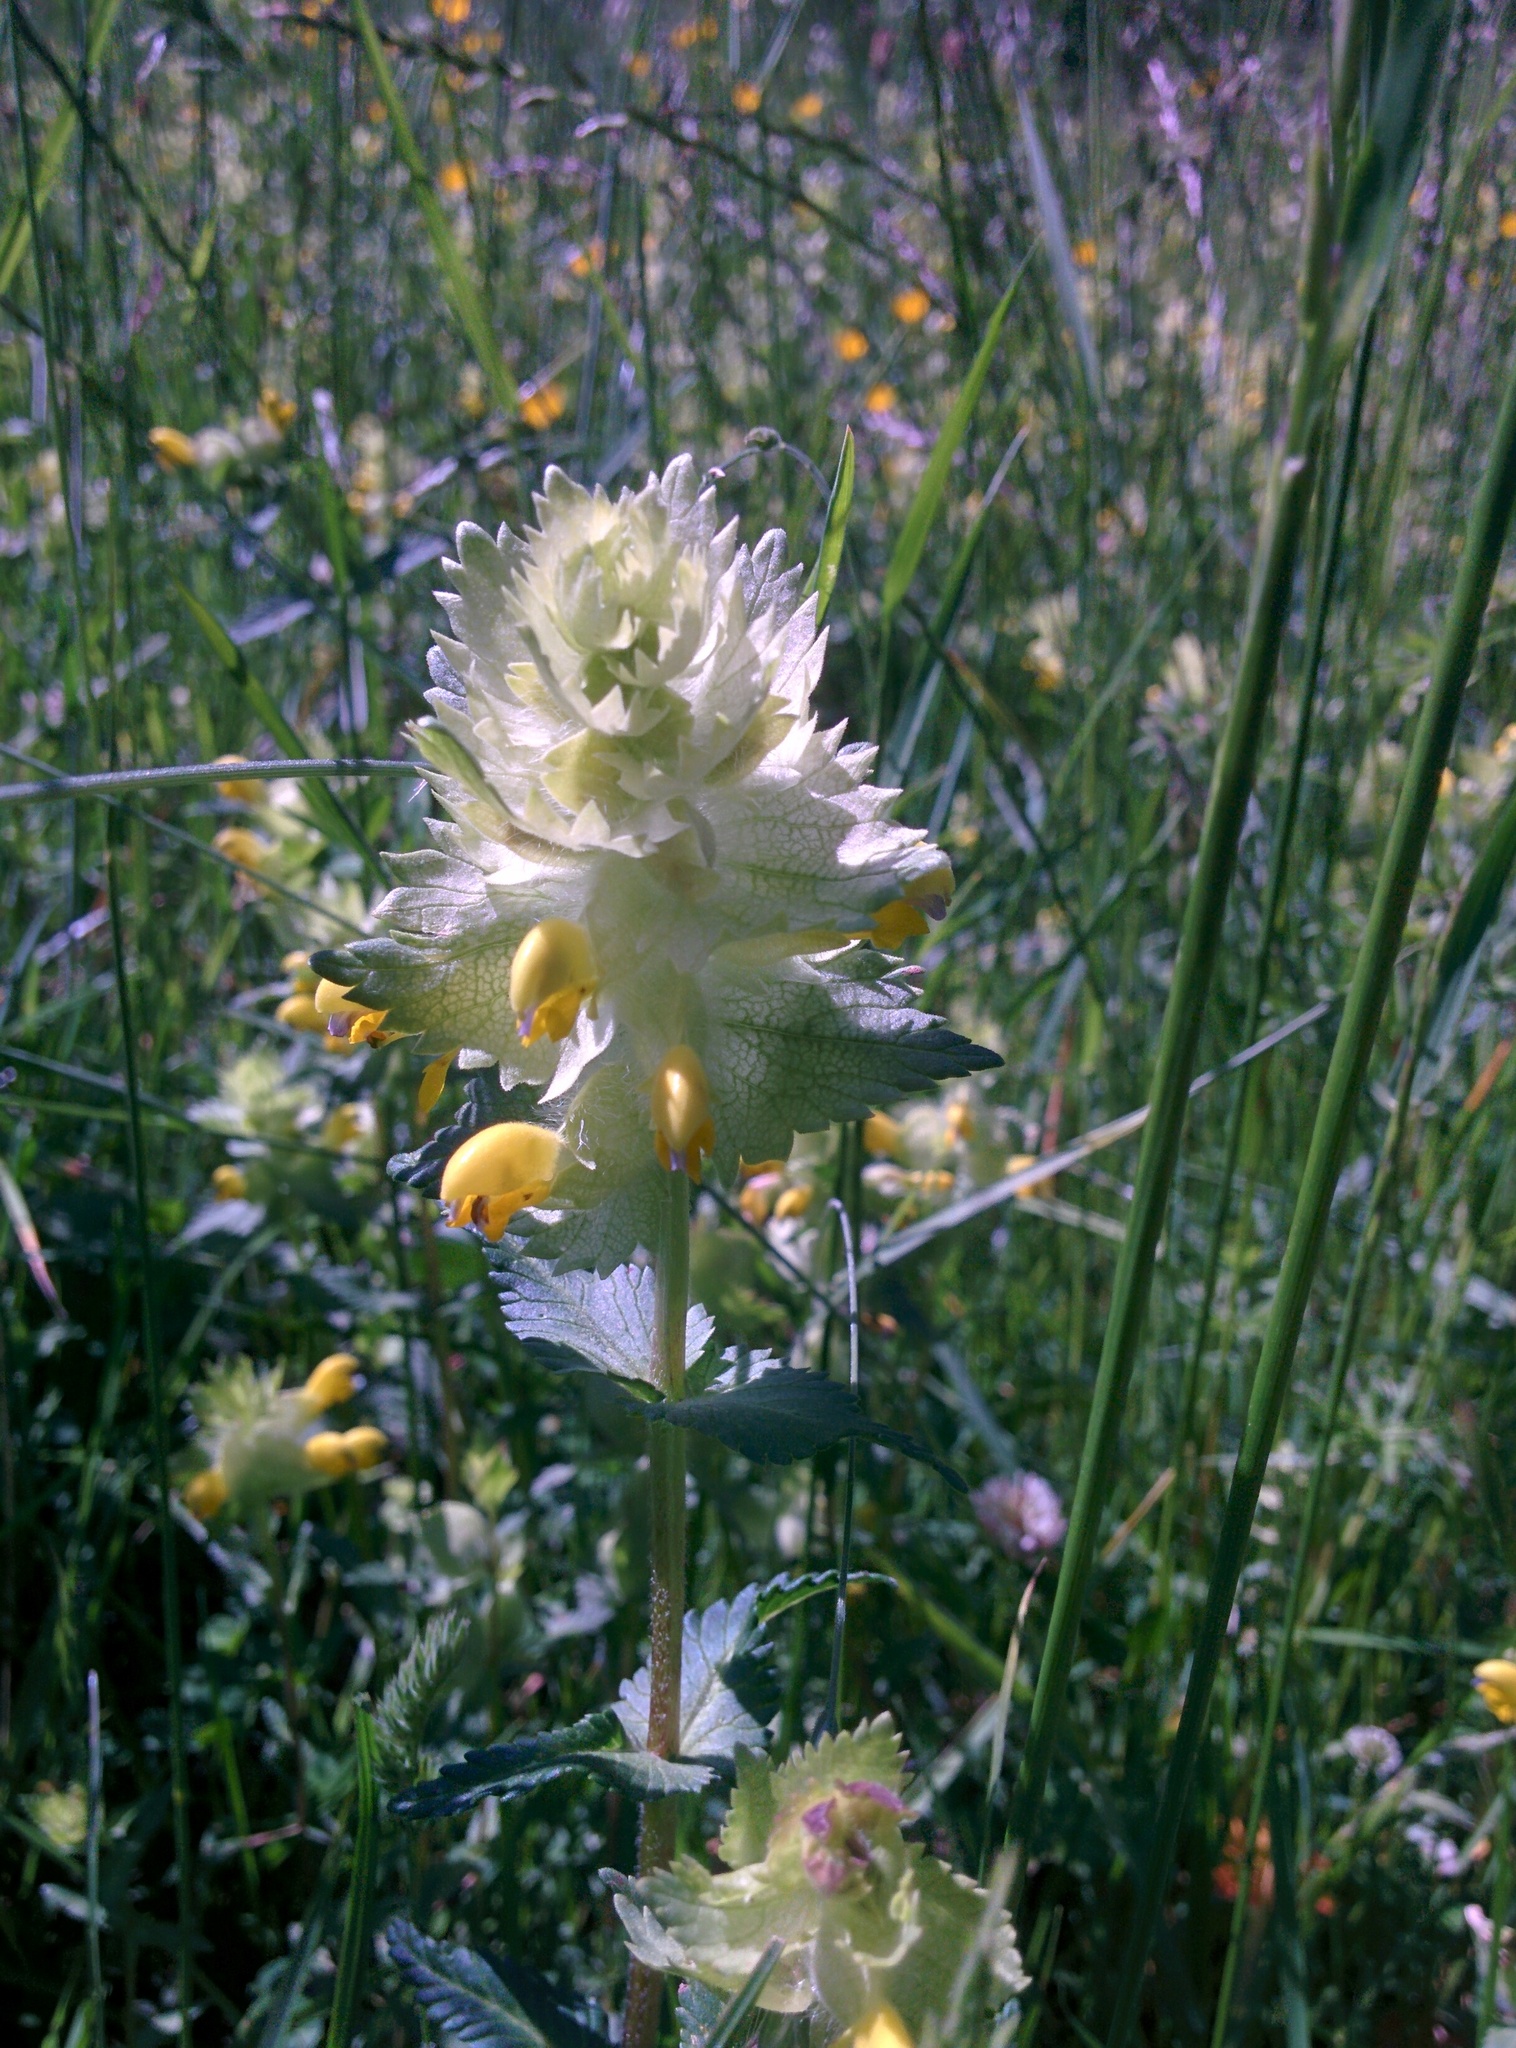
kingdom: Plantae
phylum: Tracheophyta
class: Magnoliopsida
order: Lamiales
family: Orobanchaceae
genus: Rhinanthus
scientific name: Rhinanthus alectorolophus
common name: Greater yellow-rattle
